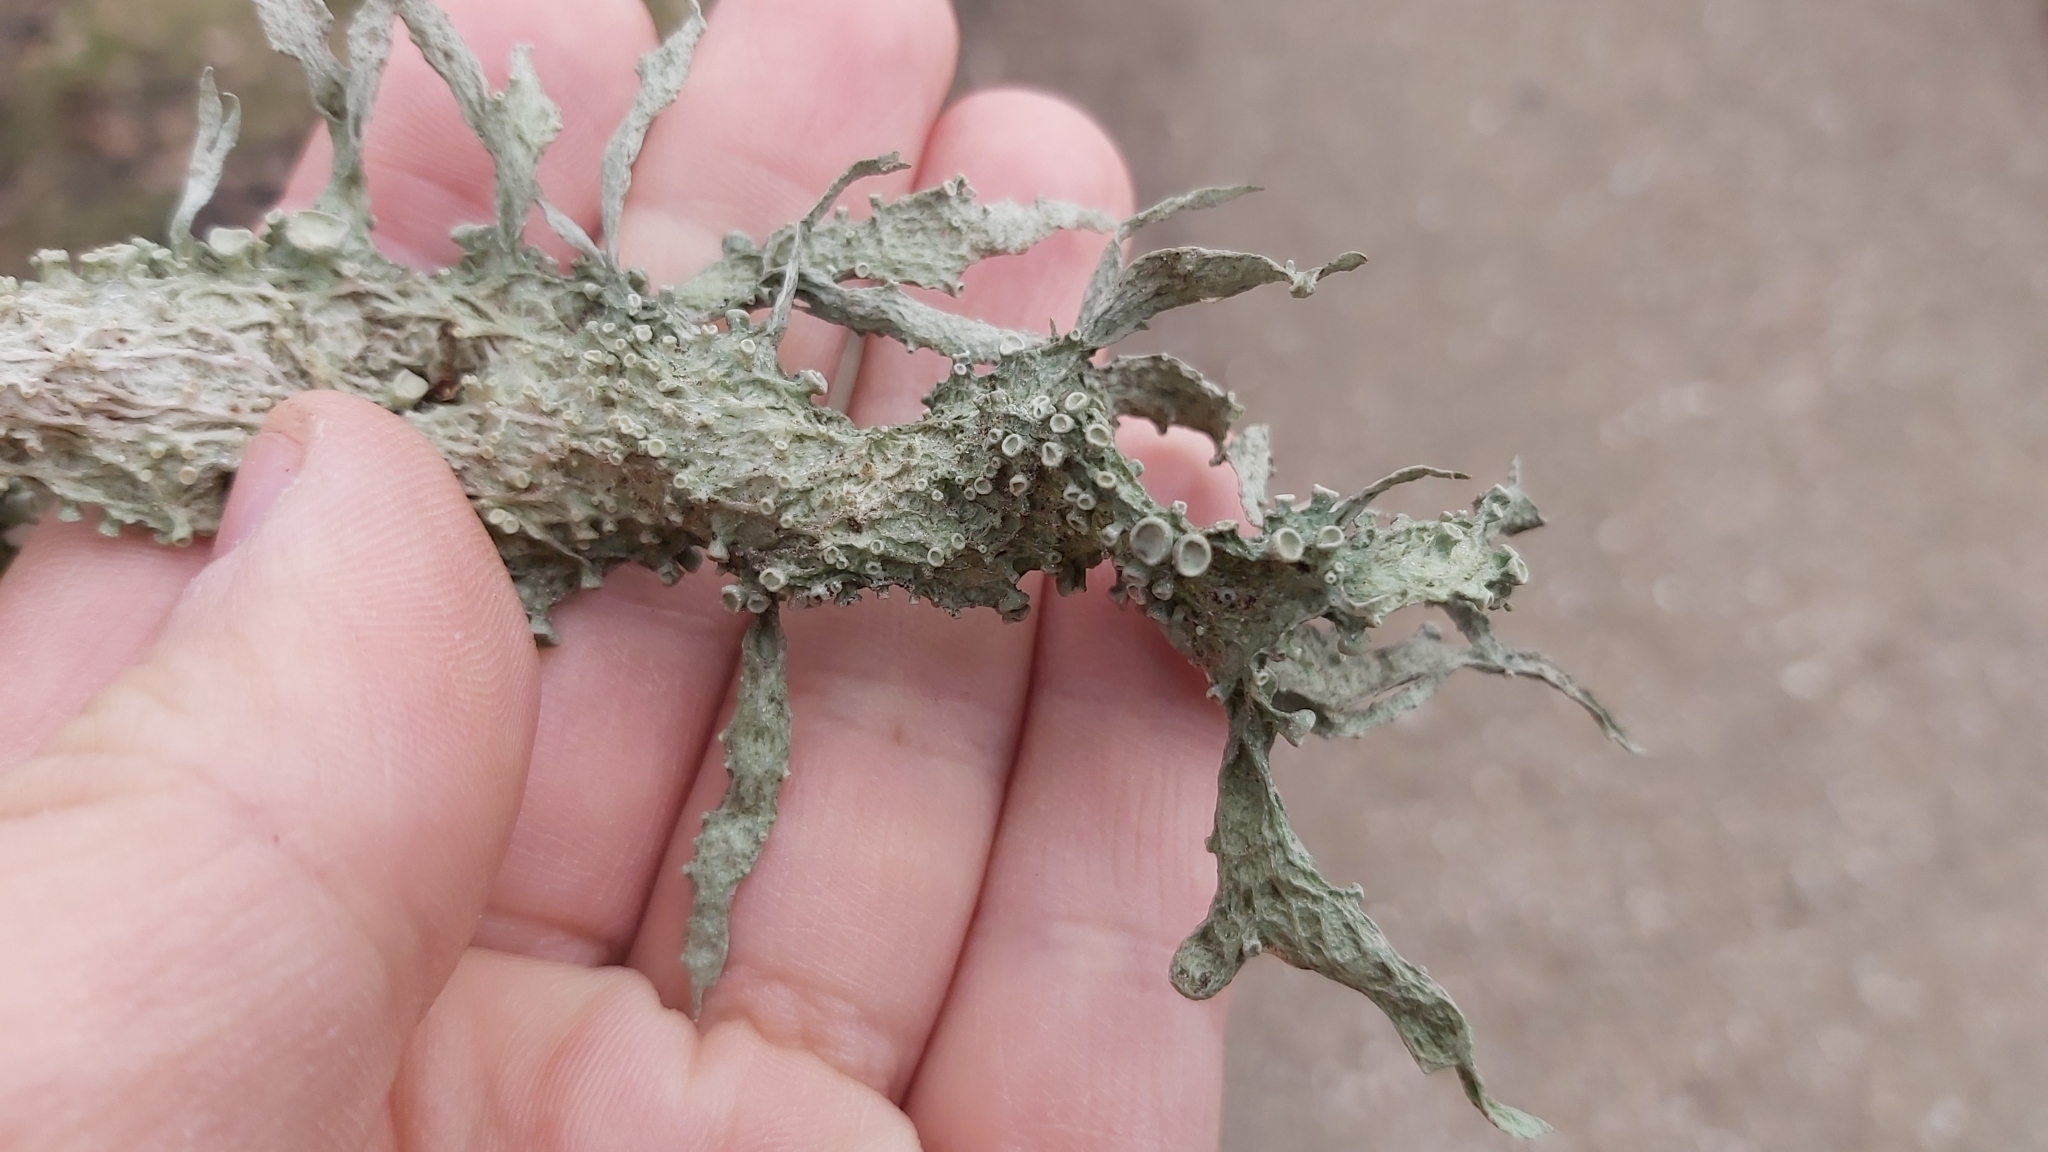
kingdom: Fungi
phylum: Ascomycota
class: Lecanoromycetes
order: Lecanorales
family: Ramalinaceae
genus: Ramalina
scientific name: Ramalina fraxinea
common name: Cartilage lichen
